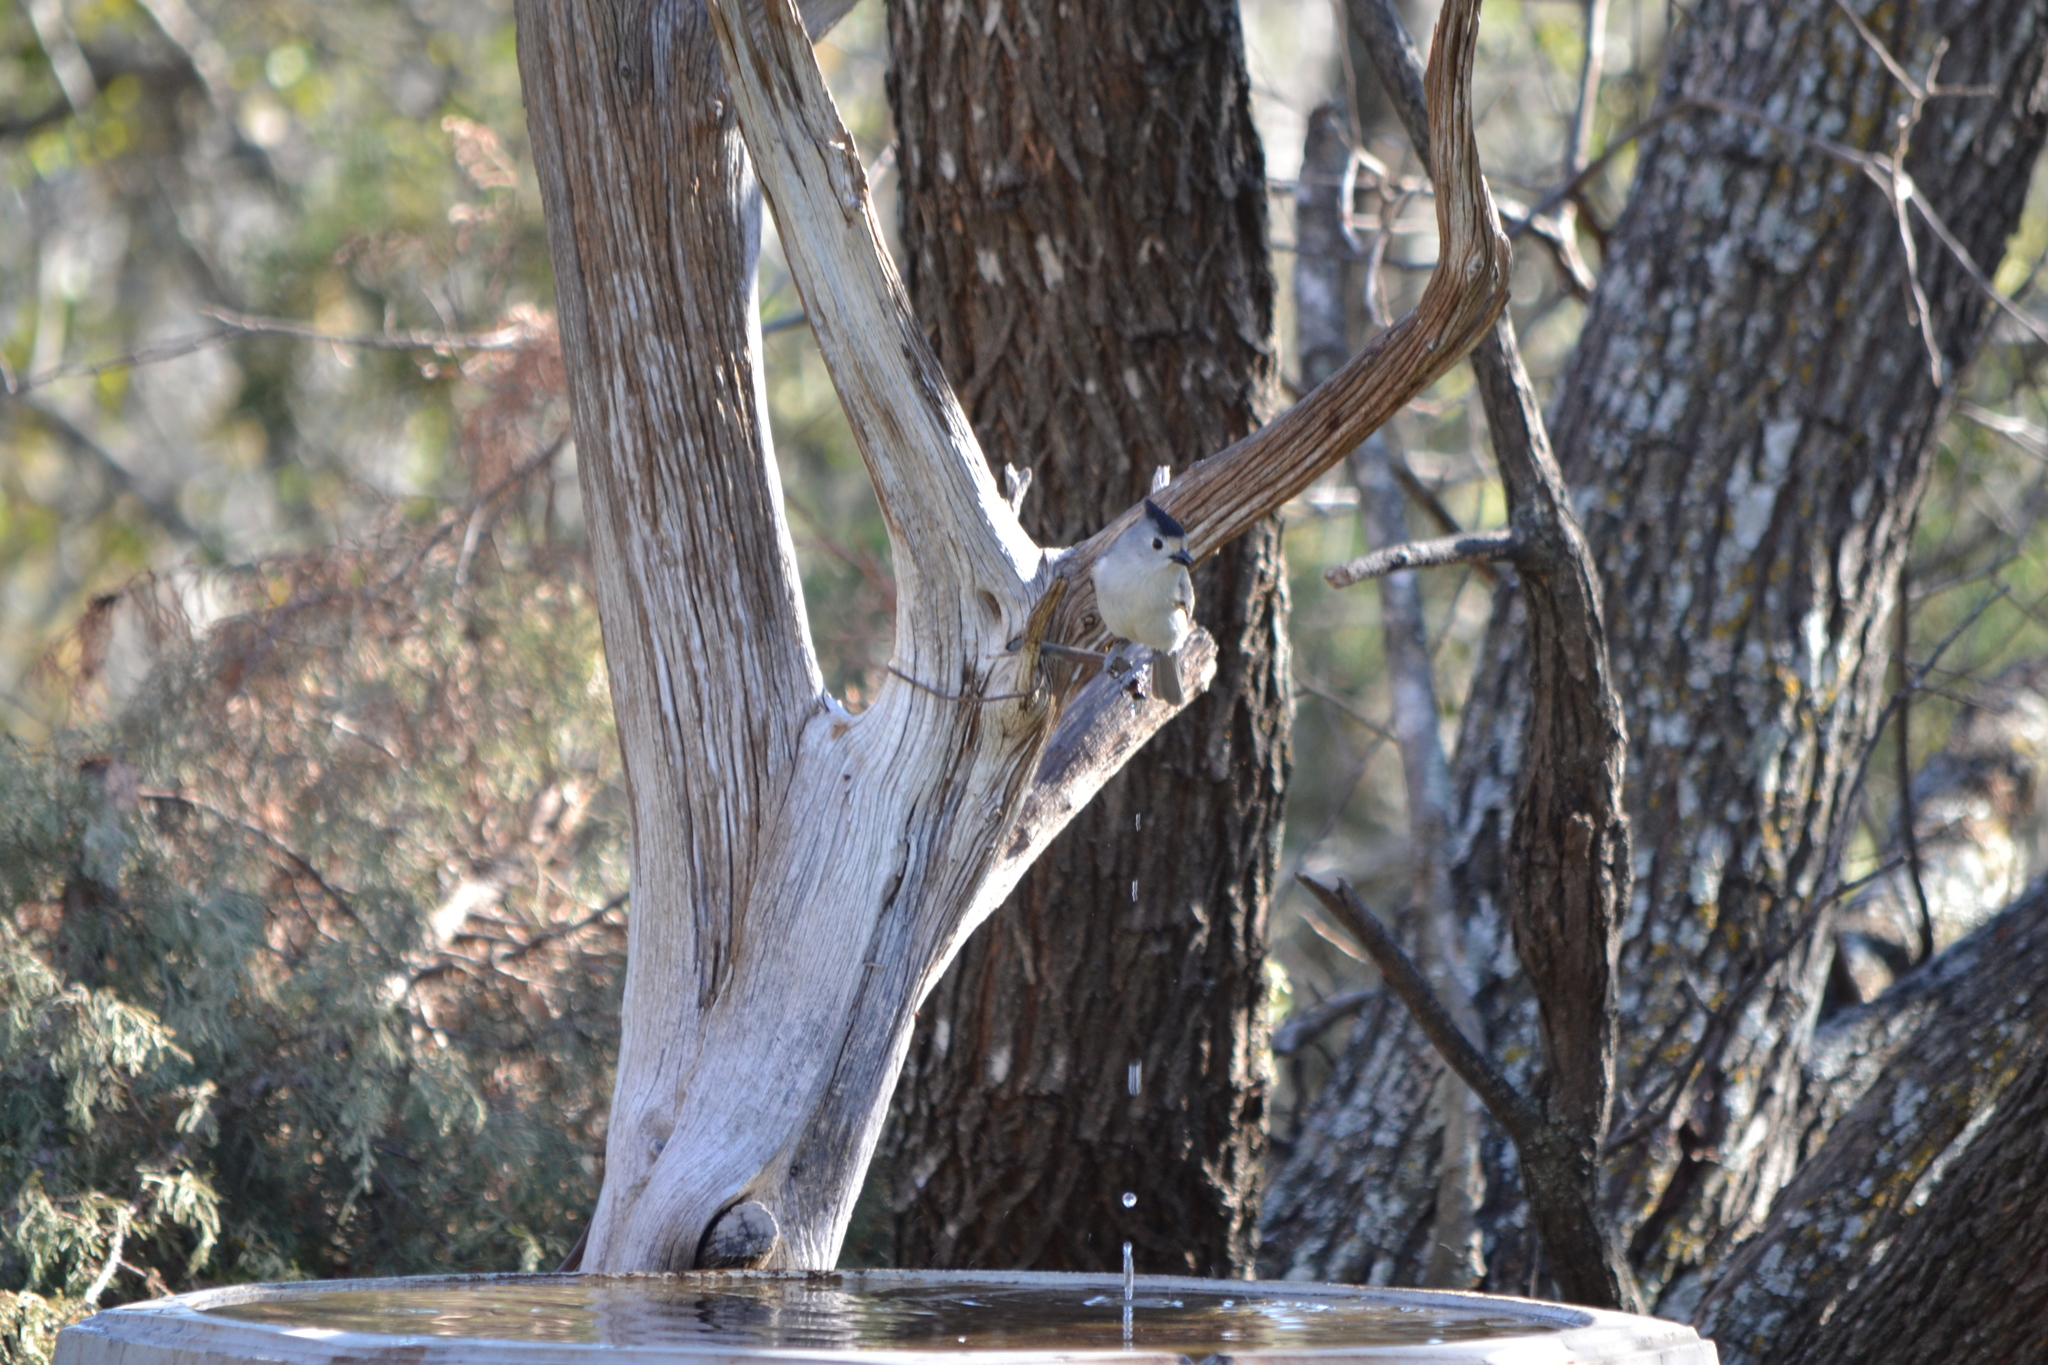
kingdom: Animalia
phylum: Chordata
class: Aves
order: Passeriformes
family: Paridae
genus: Baeolophus
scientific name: Baeolophus atricristatus
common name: Black-crested titmouse
